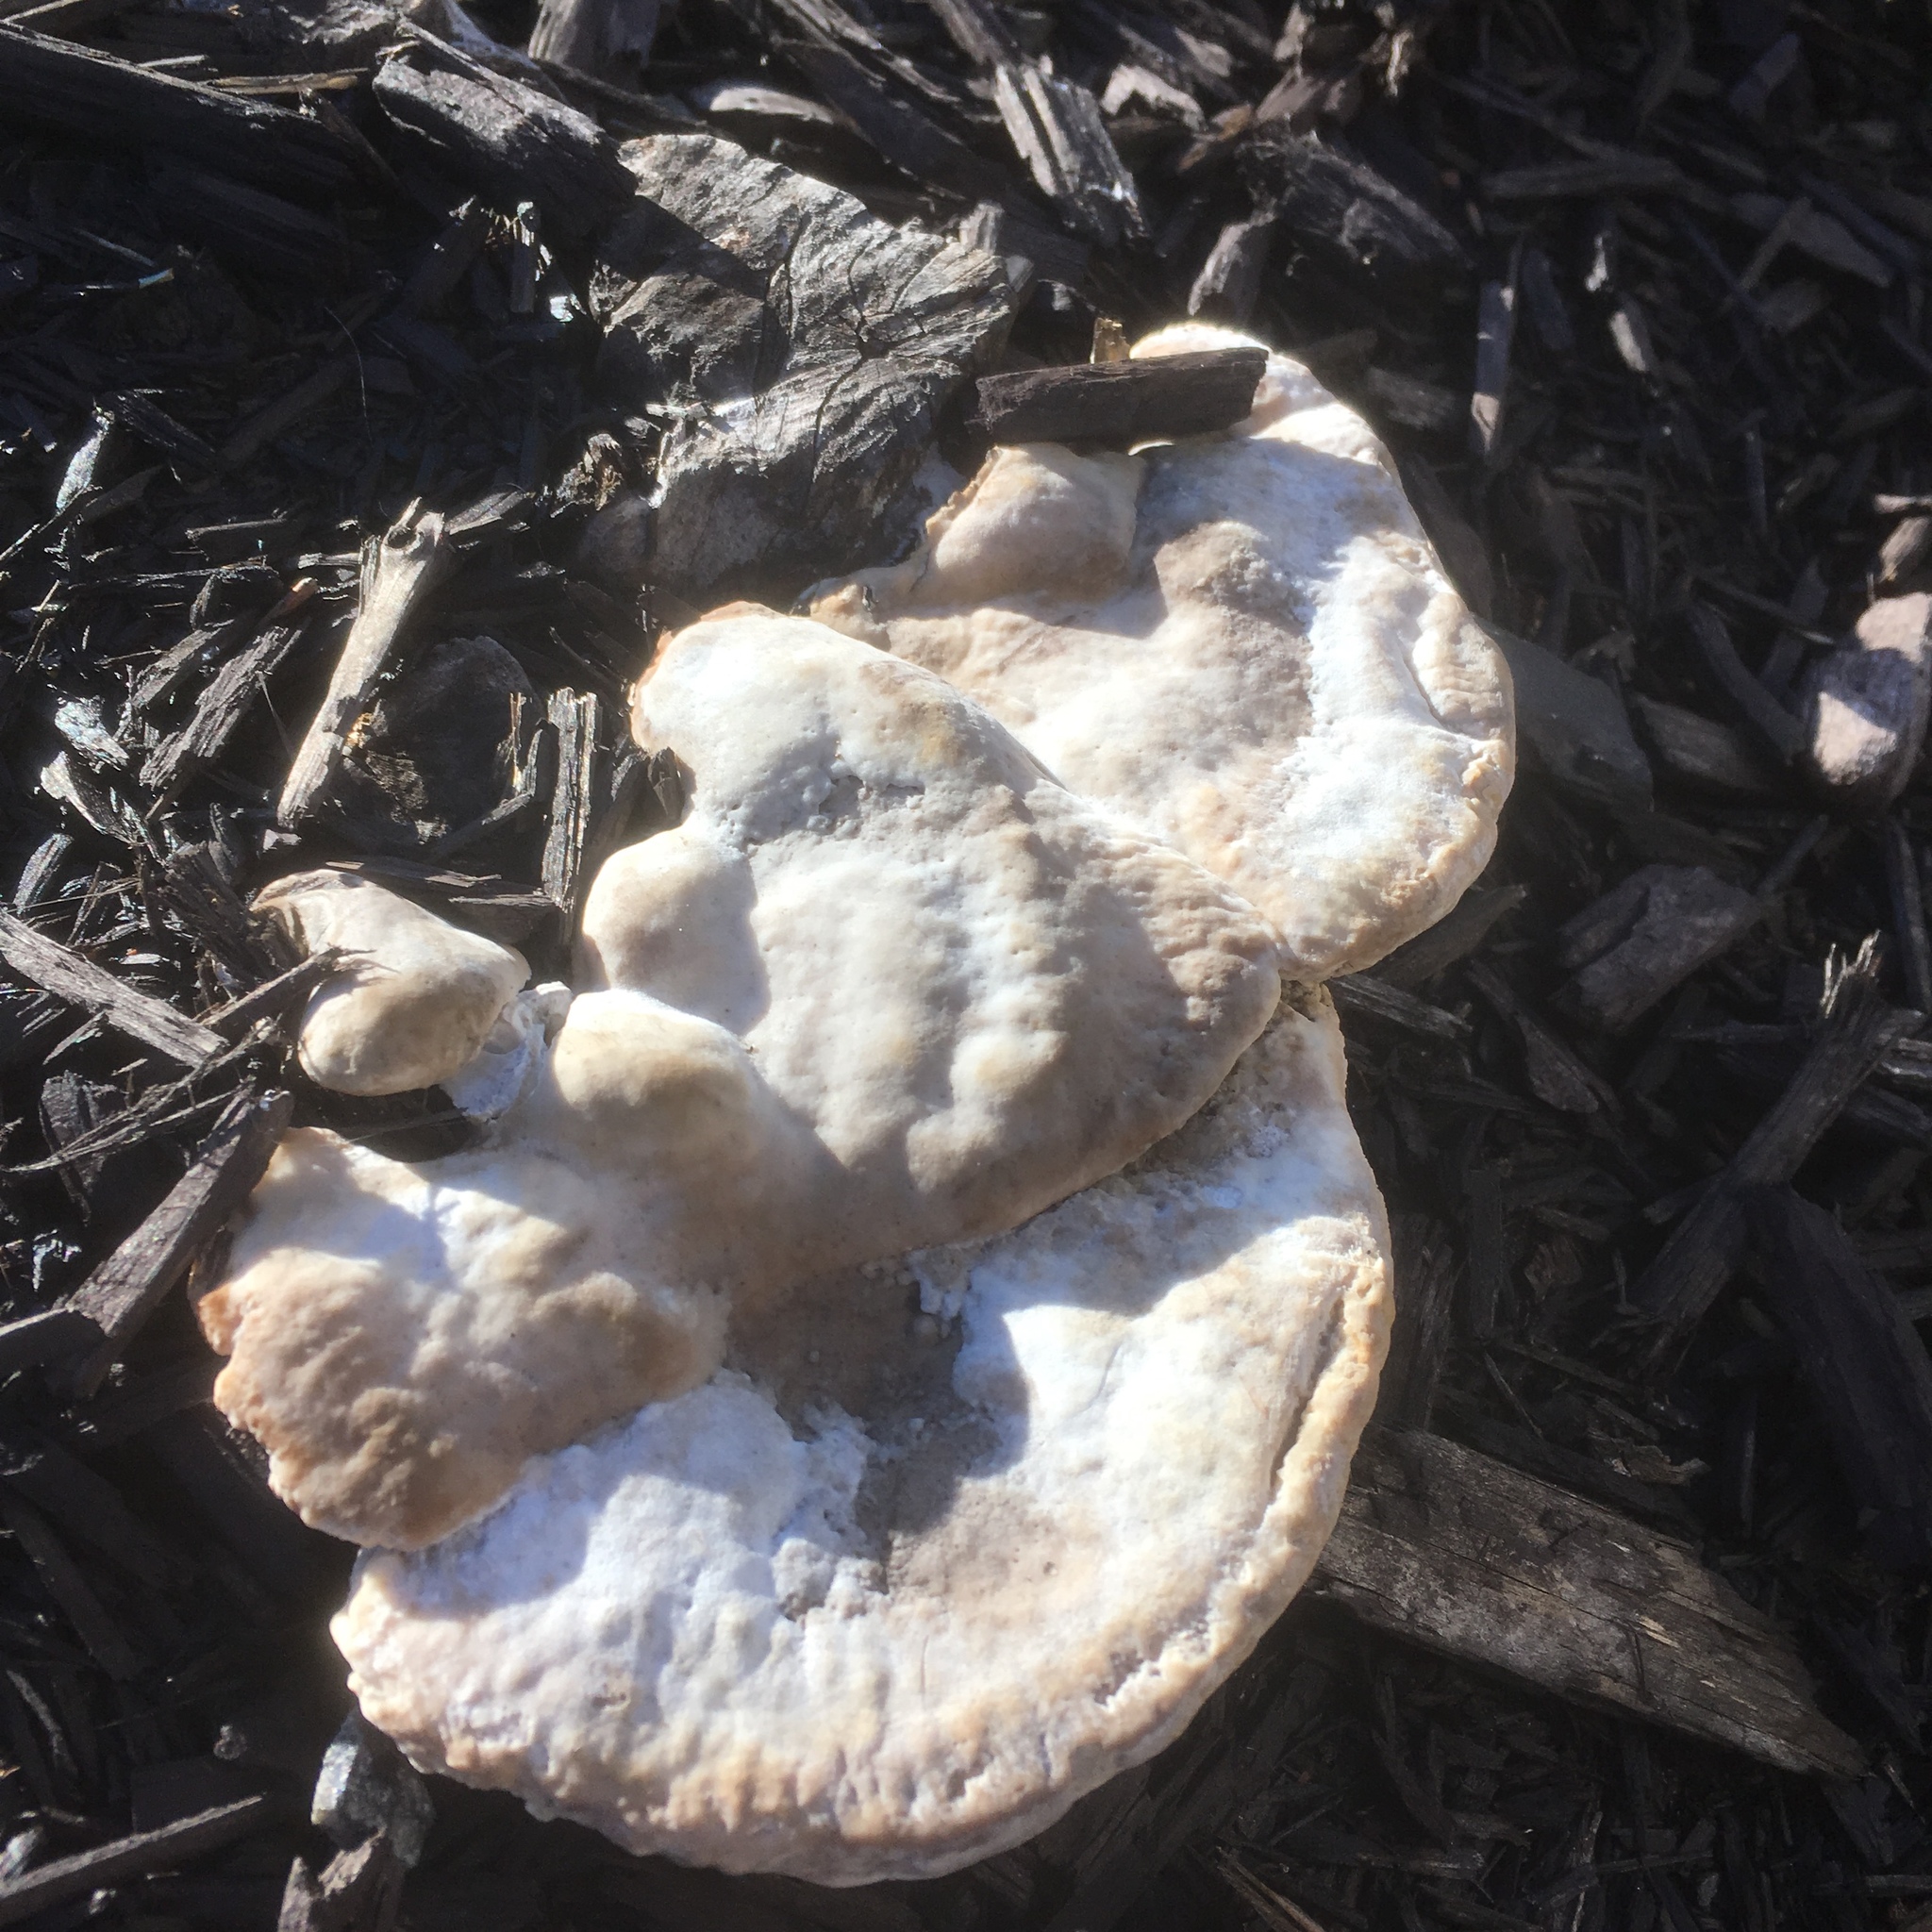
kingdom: Fungi
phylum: Basidiomycota
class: Agaricomycetes
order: Polyporales
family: Polyporaceae
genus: Trametes
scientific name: Trametes gibbosa
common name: Lumpy bracket
